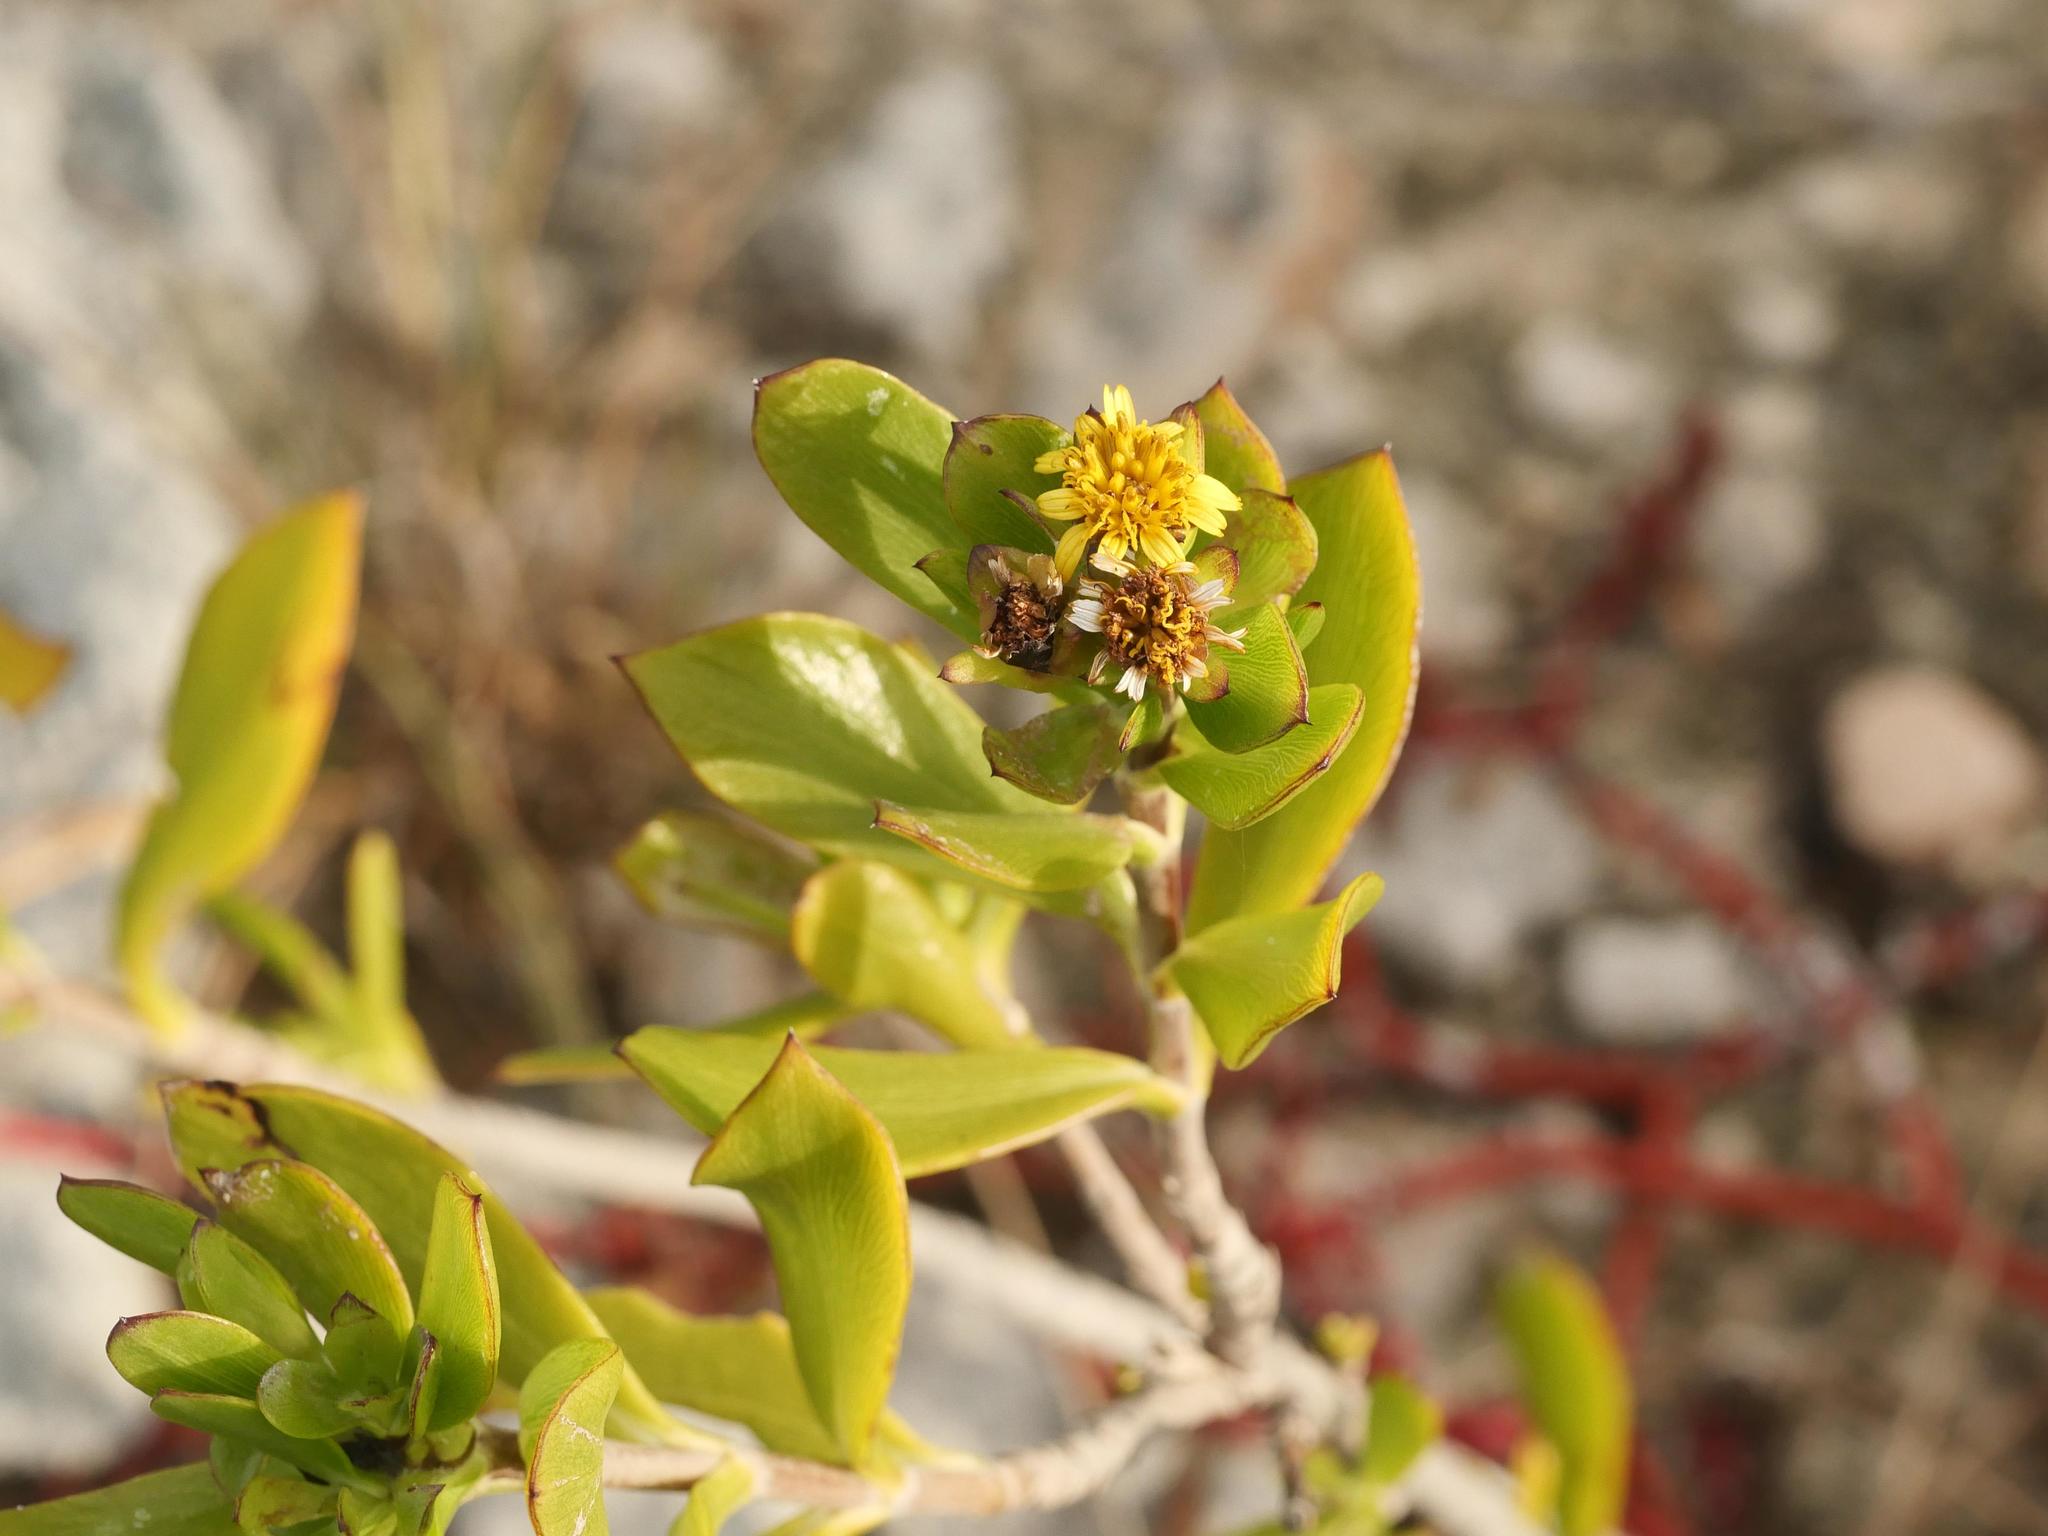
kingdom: Plantae
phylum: Tracheophyta
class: Magnoliopsida
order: Asterales
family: Asteraceae
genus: Borrichia
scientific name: Borrichia arborescens
